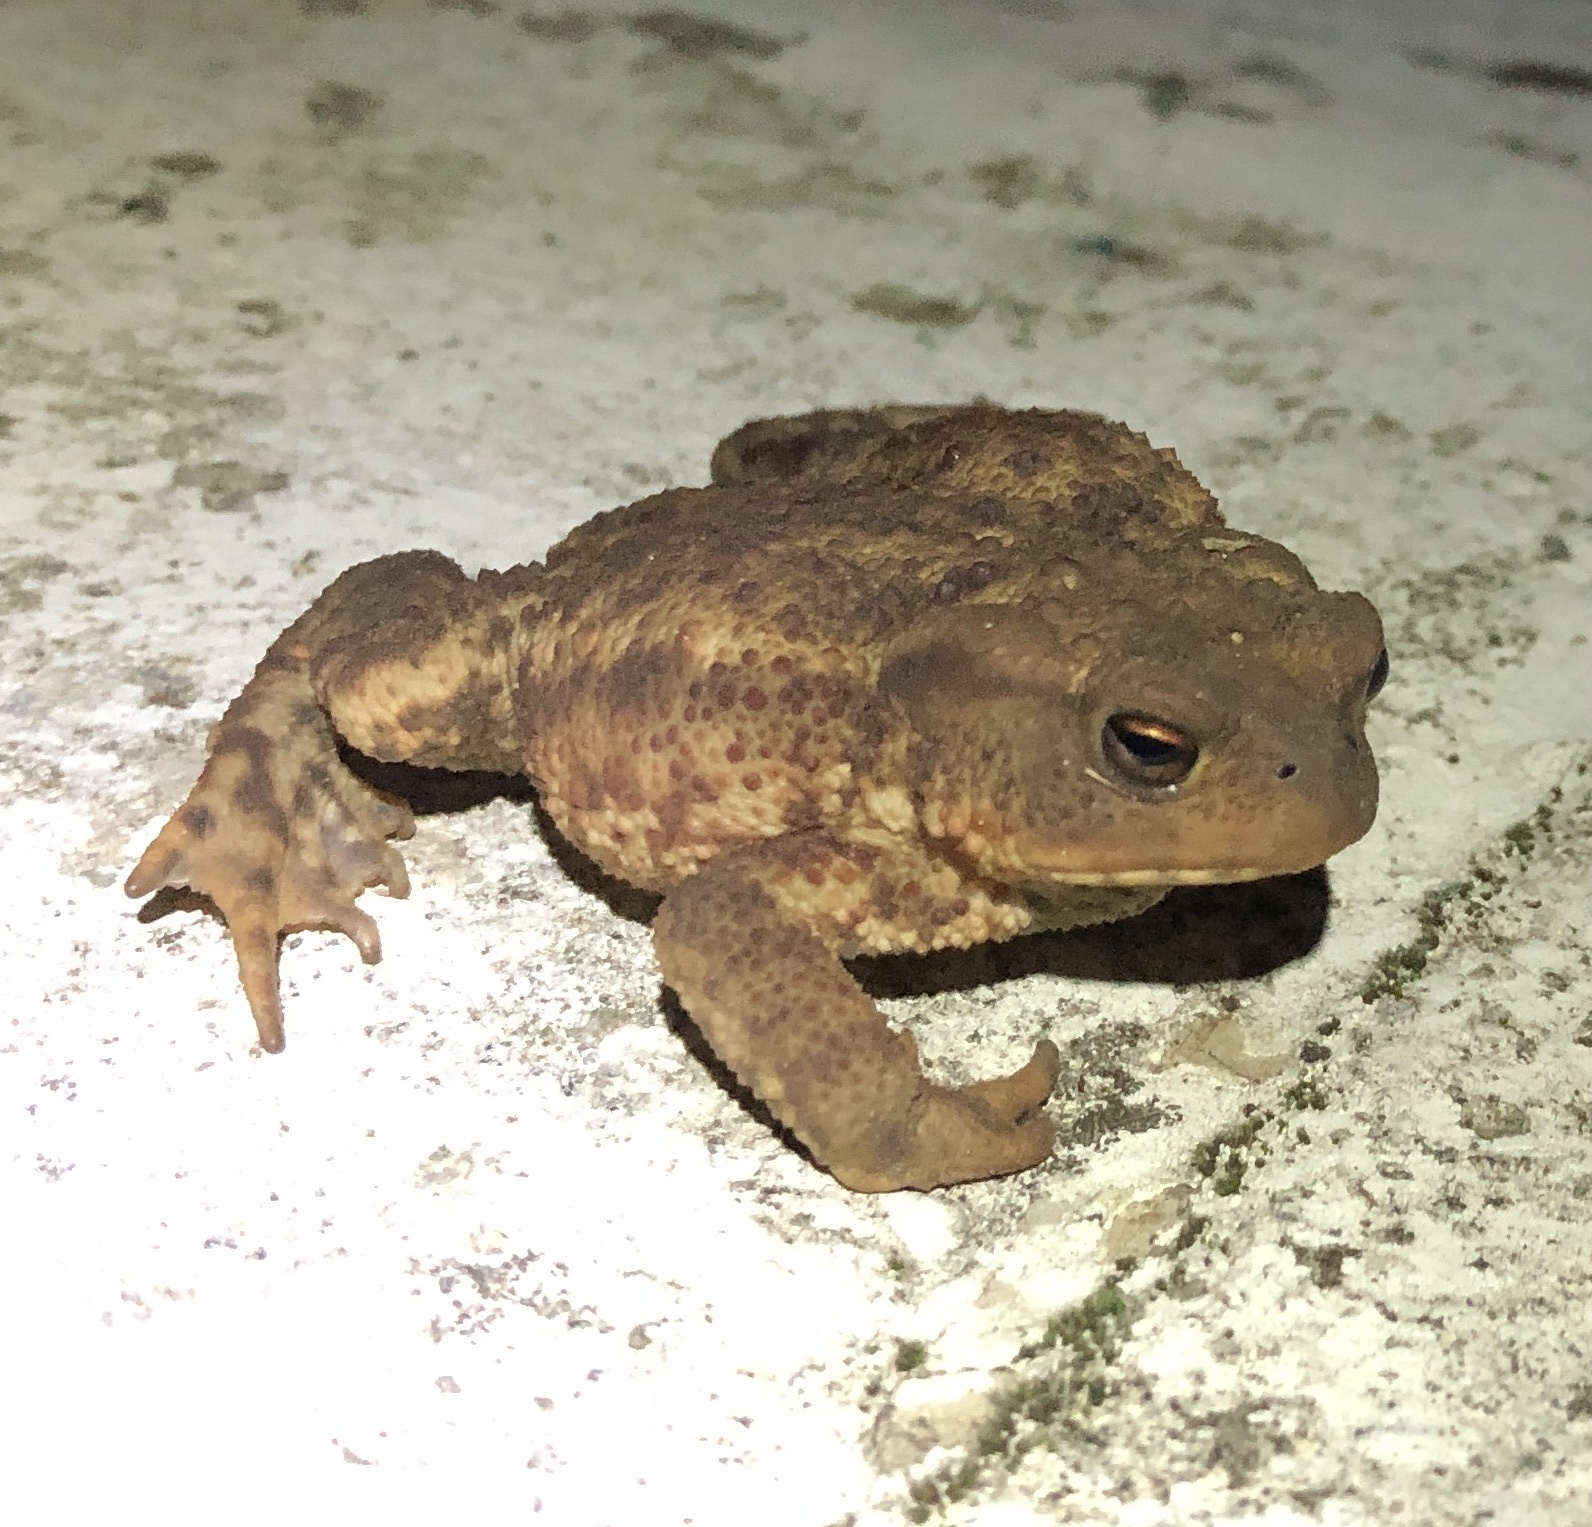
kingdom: Animalia
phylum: Chordata
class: Amphibia
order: Anura
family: Bufonidae
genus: Bufo
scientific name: Bufo bufo
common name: Common toad
